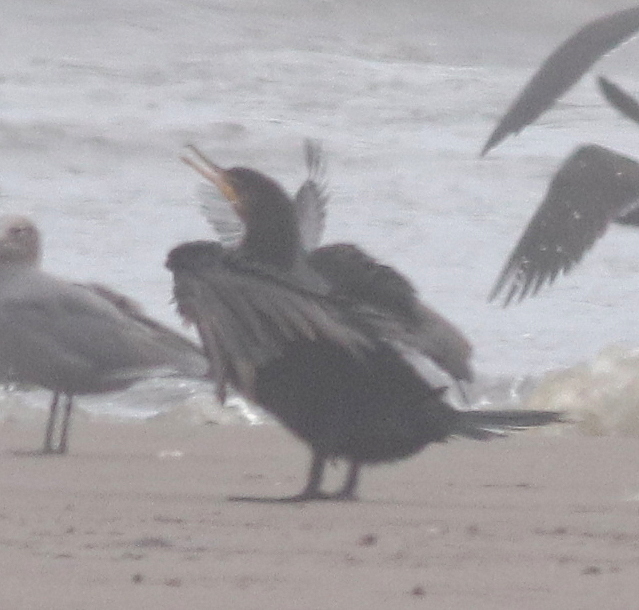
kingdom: Animalia
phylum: Chordata
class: Aves
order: Suliformes
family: Phalacrocoracidae
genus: Phalacrocorax
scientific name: Phalacrocorax brasilianus
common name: Neotropic cormorant
